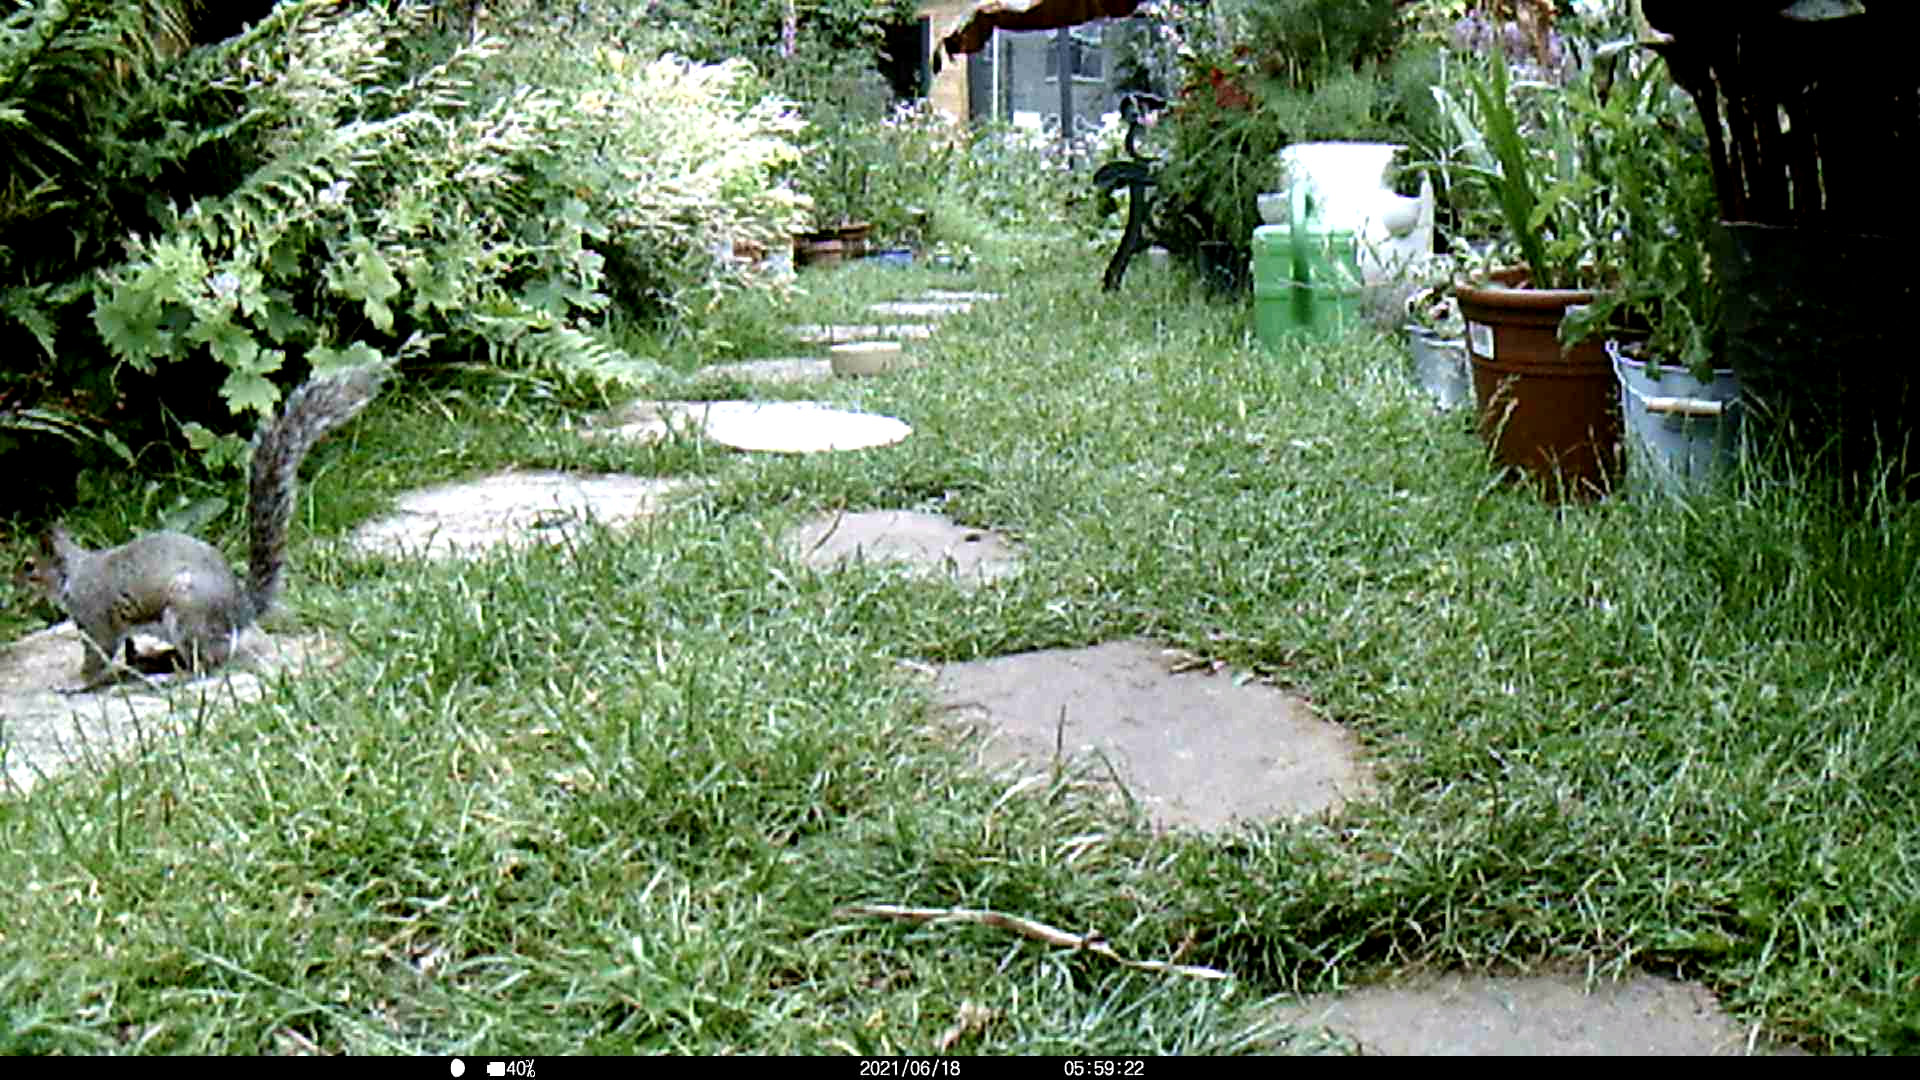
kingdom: Animalia
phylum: Chordata
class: Mammalia
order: Rodentia
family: Sciuridae
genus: Sciurus
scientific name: Sciurus carolinensis
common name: Eastern gray squirrel
